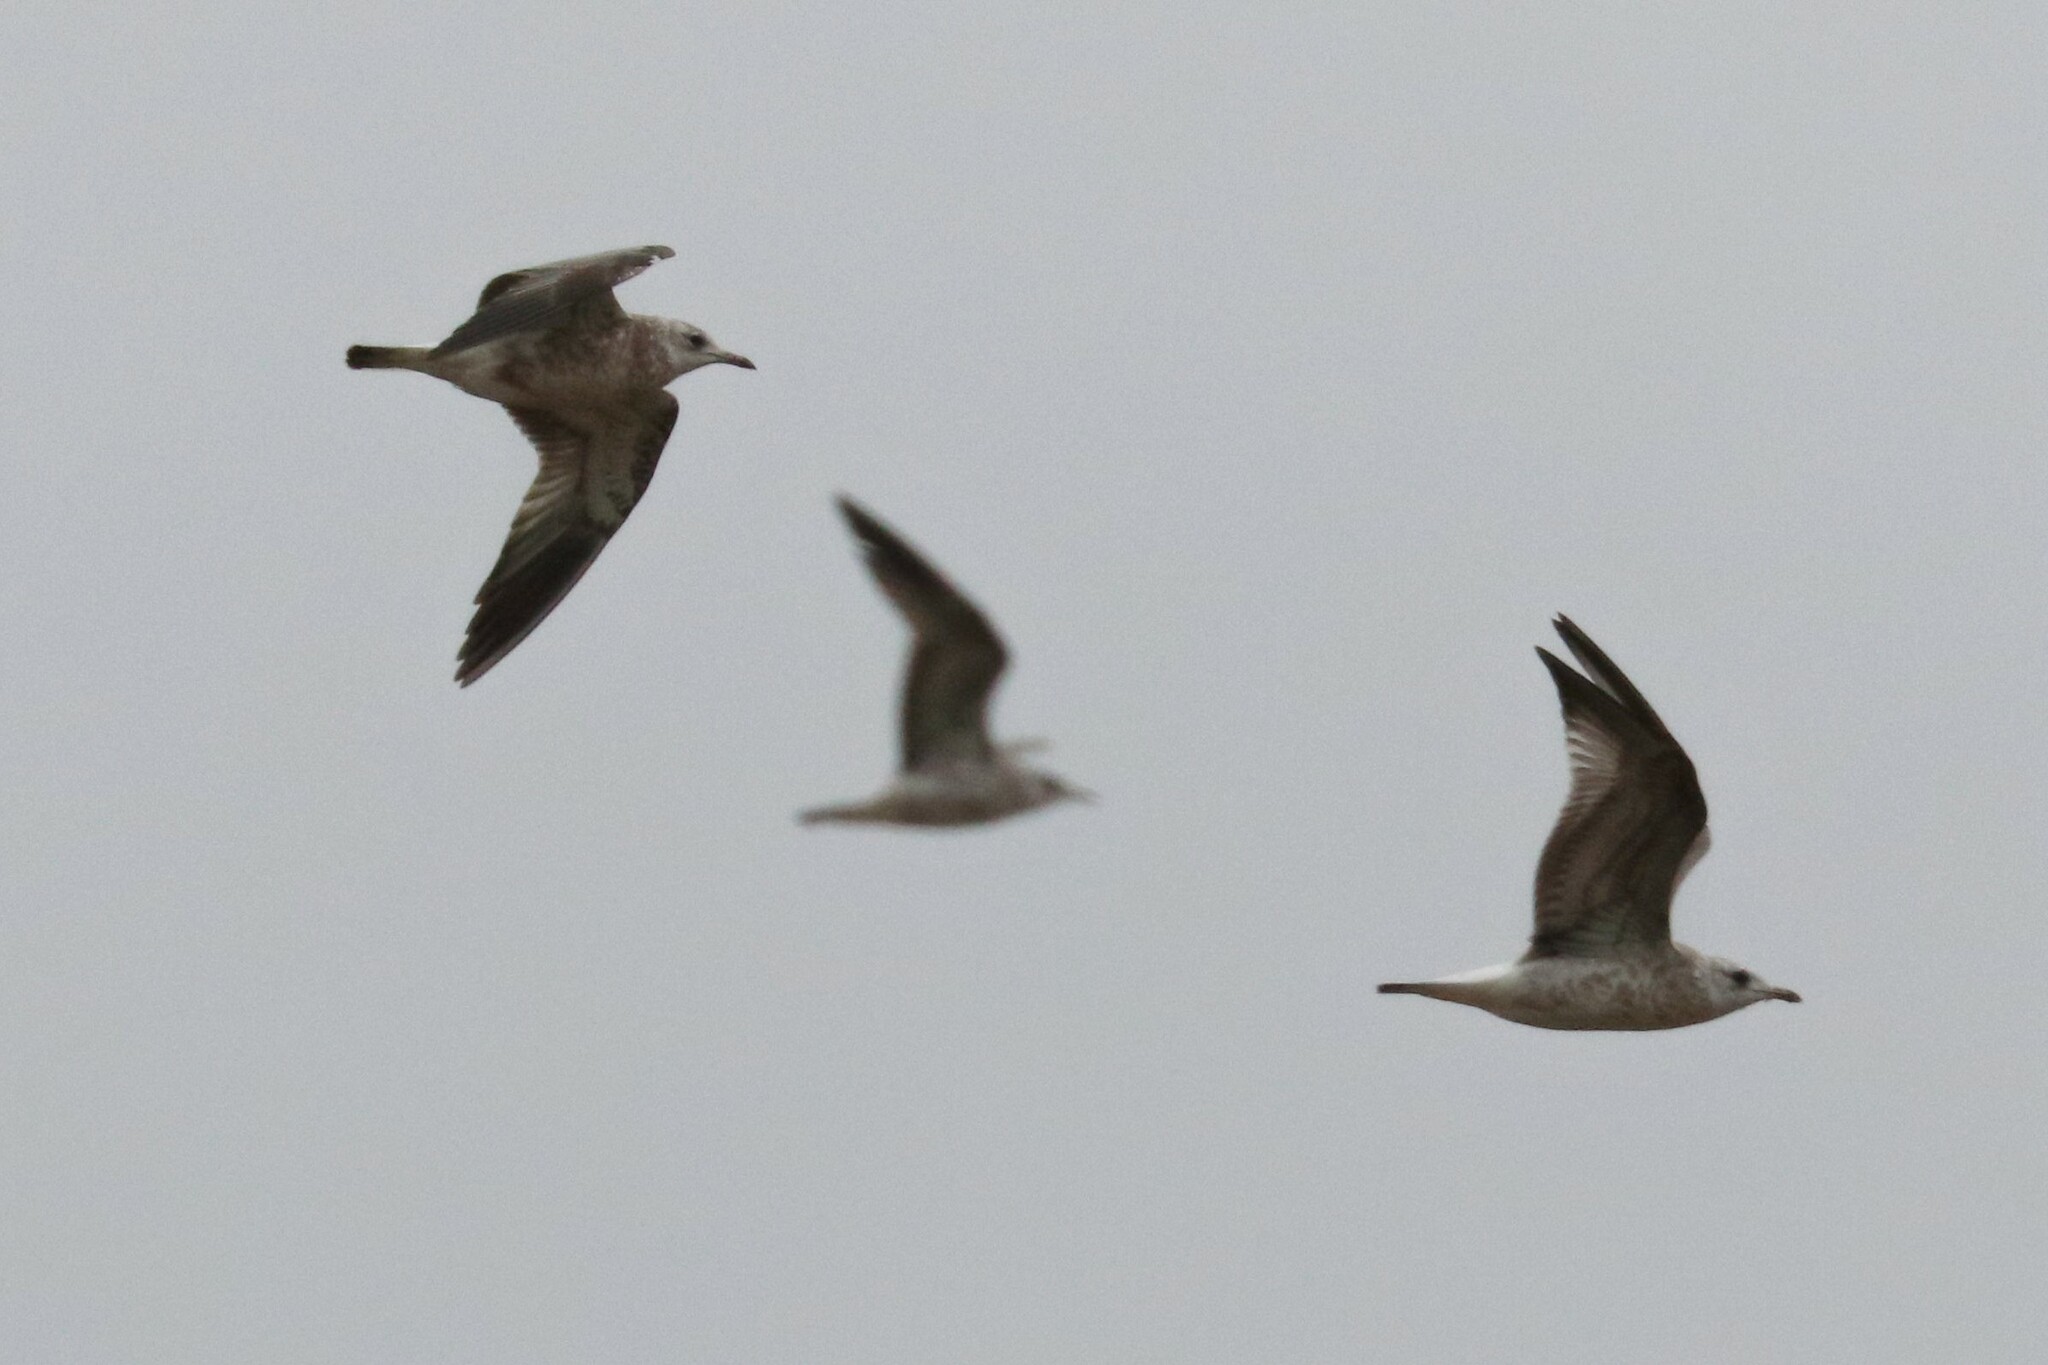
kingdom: Animalia
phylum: Chordata
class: Aves
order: Charadriiformes
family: Laridae
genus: Larus
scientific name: Larus canus
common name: Mew gull
